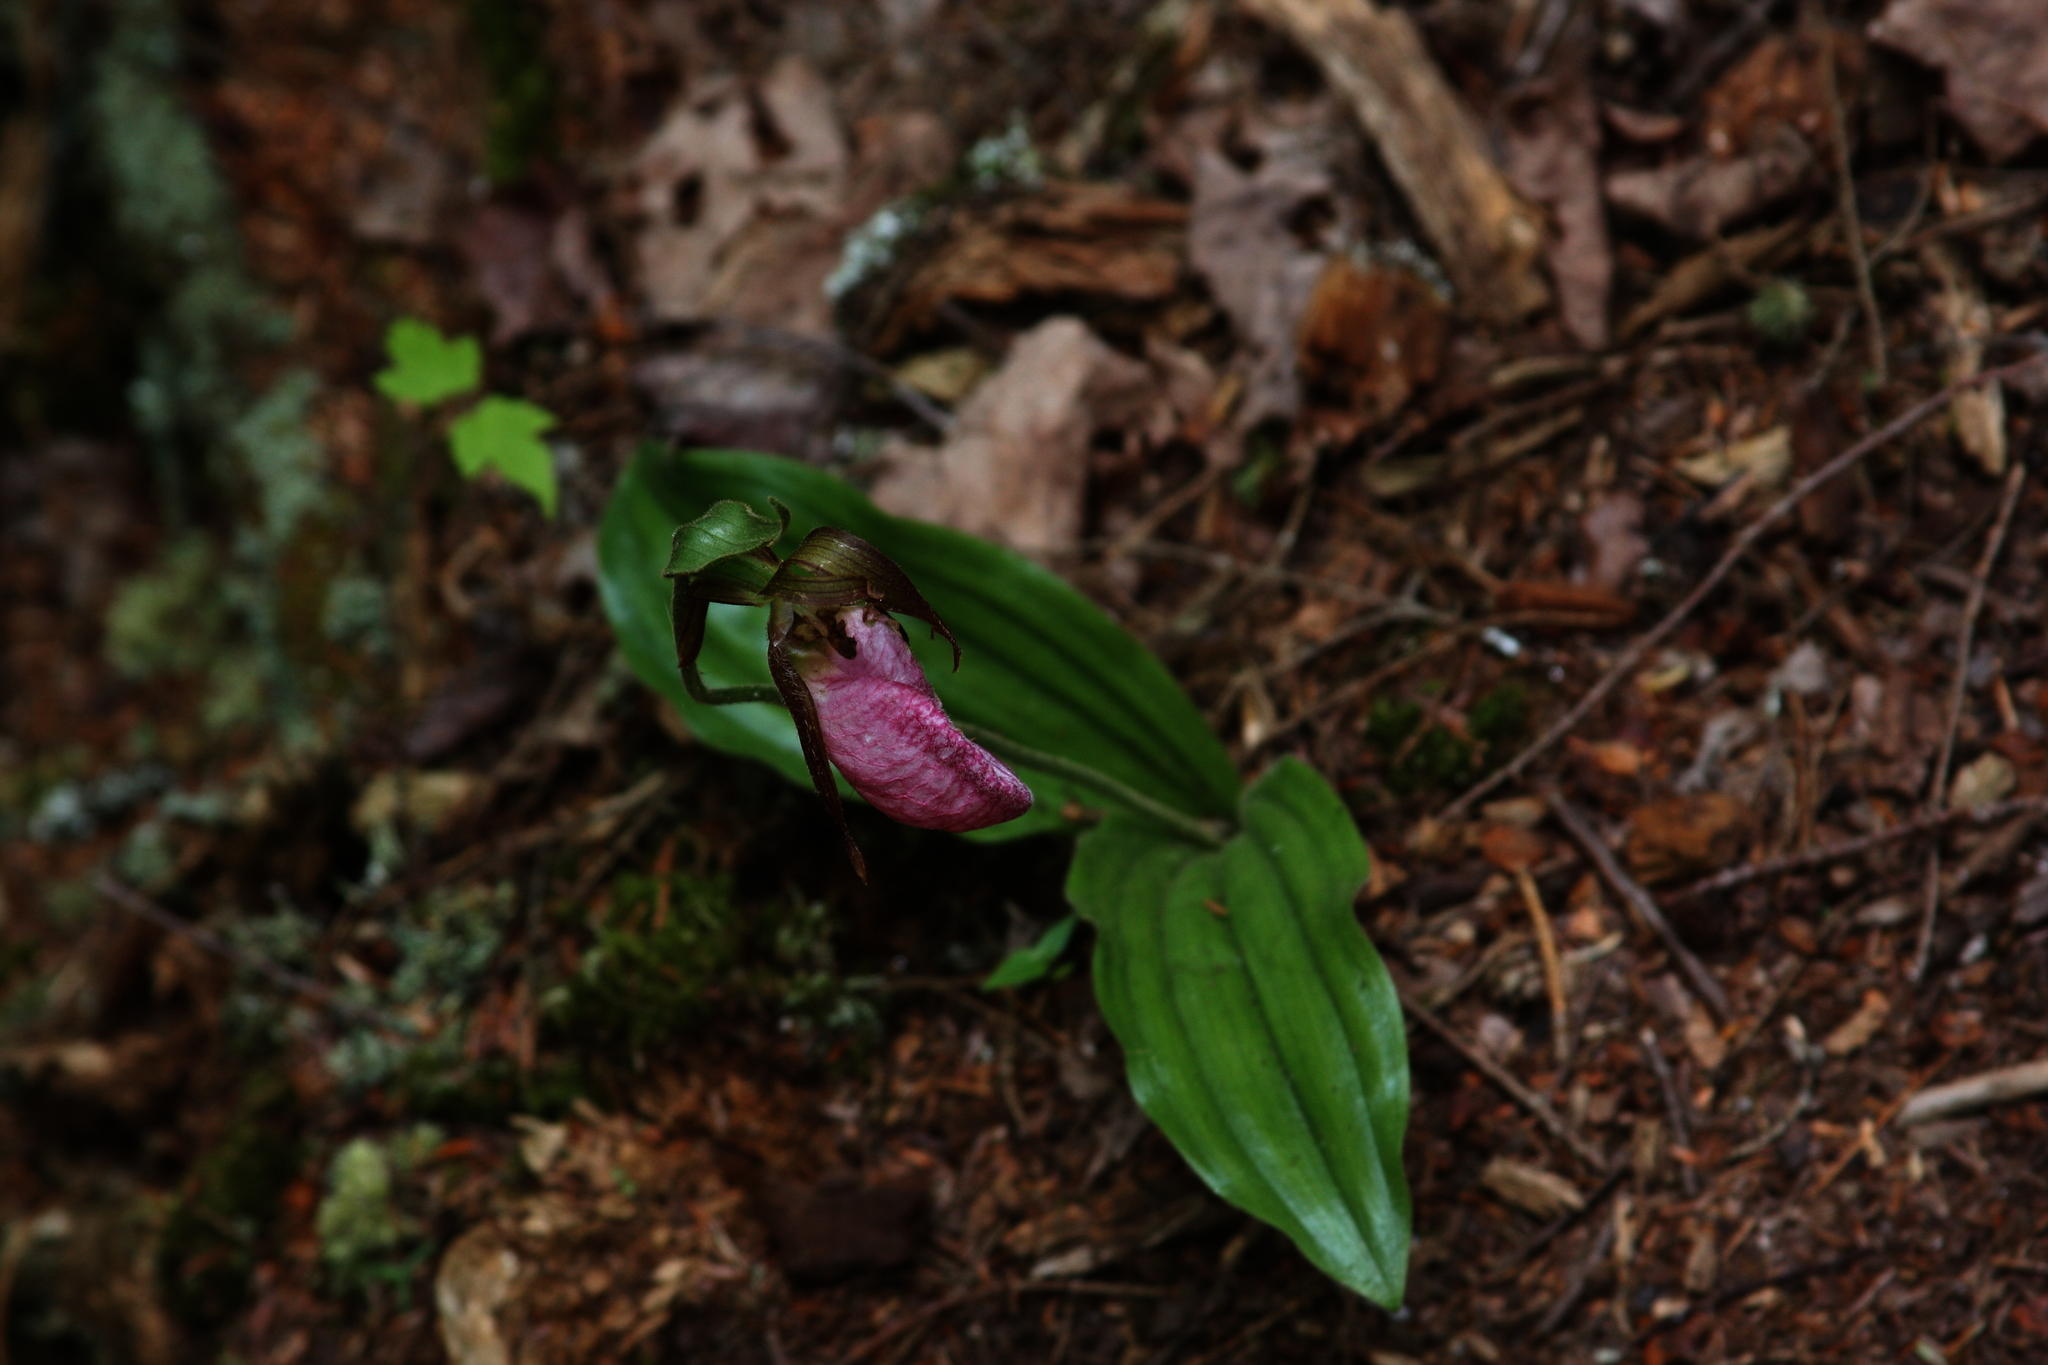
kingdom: Plantae
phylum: Tracheophyta
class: Liliopsida
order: Asparagales
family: Orchidaceae
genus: Cypripedium
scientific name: Cypripedium acaule
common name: Pink lady's-slipper
